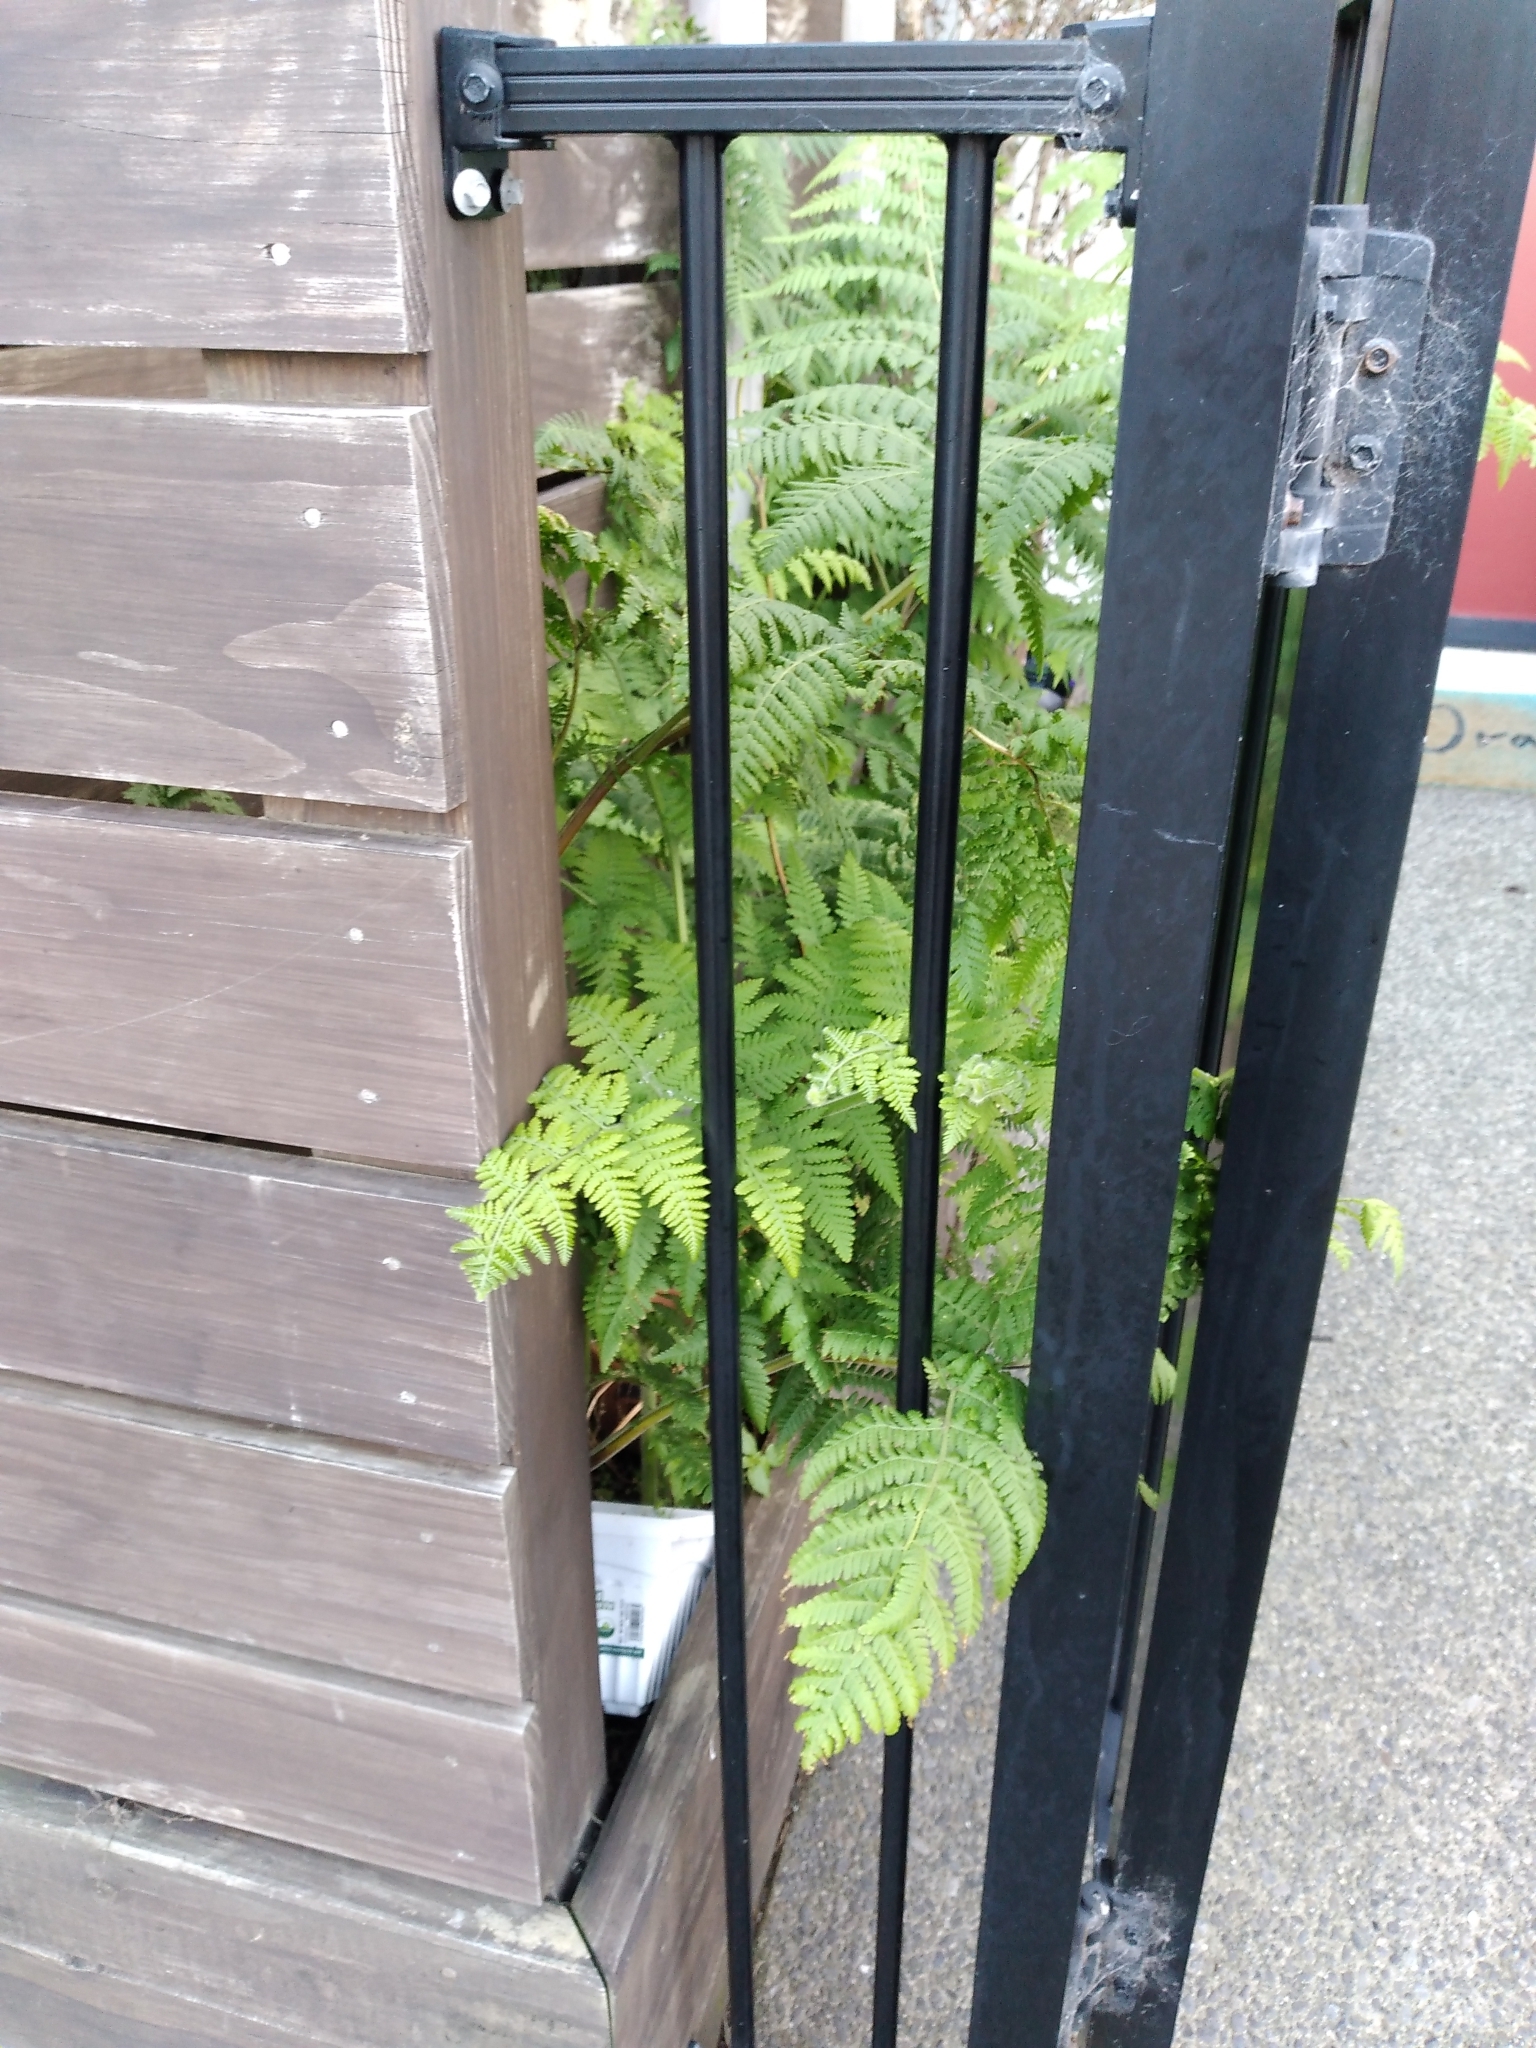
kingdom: Plantae
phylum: Tracheophyta
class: Polypodiopsida
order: Polypodiales
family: Dennstaedtiaceae
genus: Hypolepis
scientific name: Hypolepis dicksonioides
